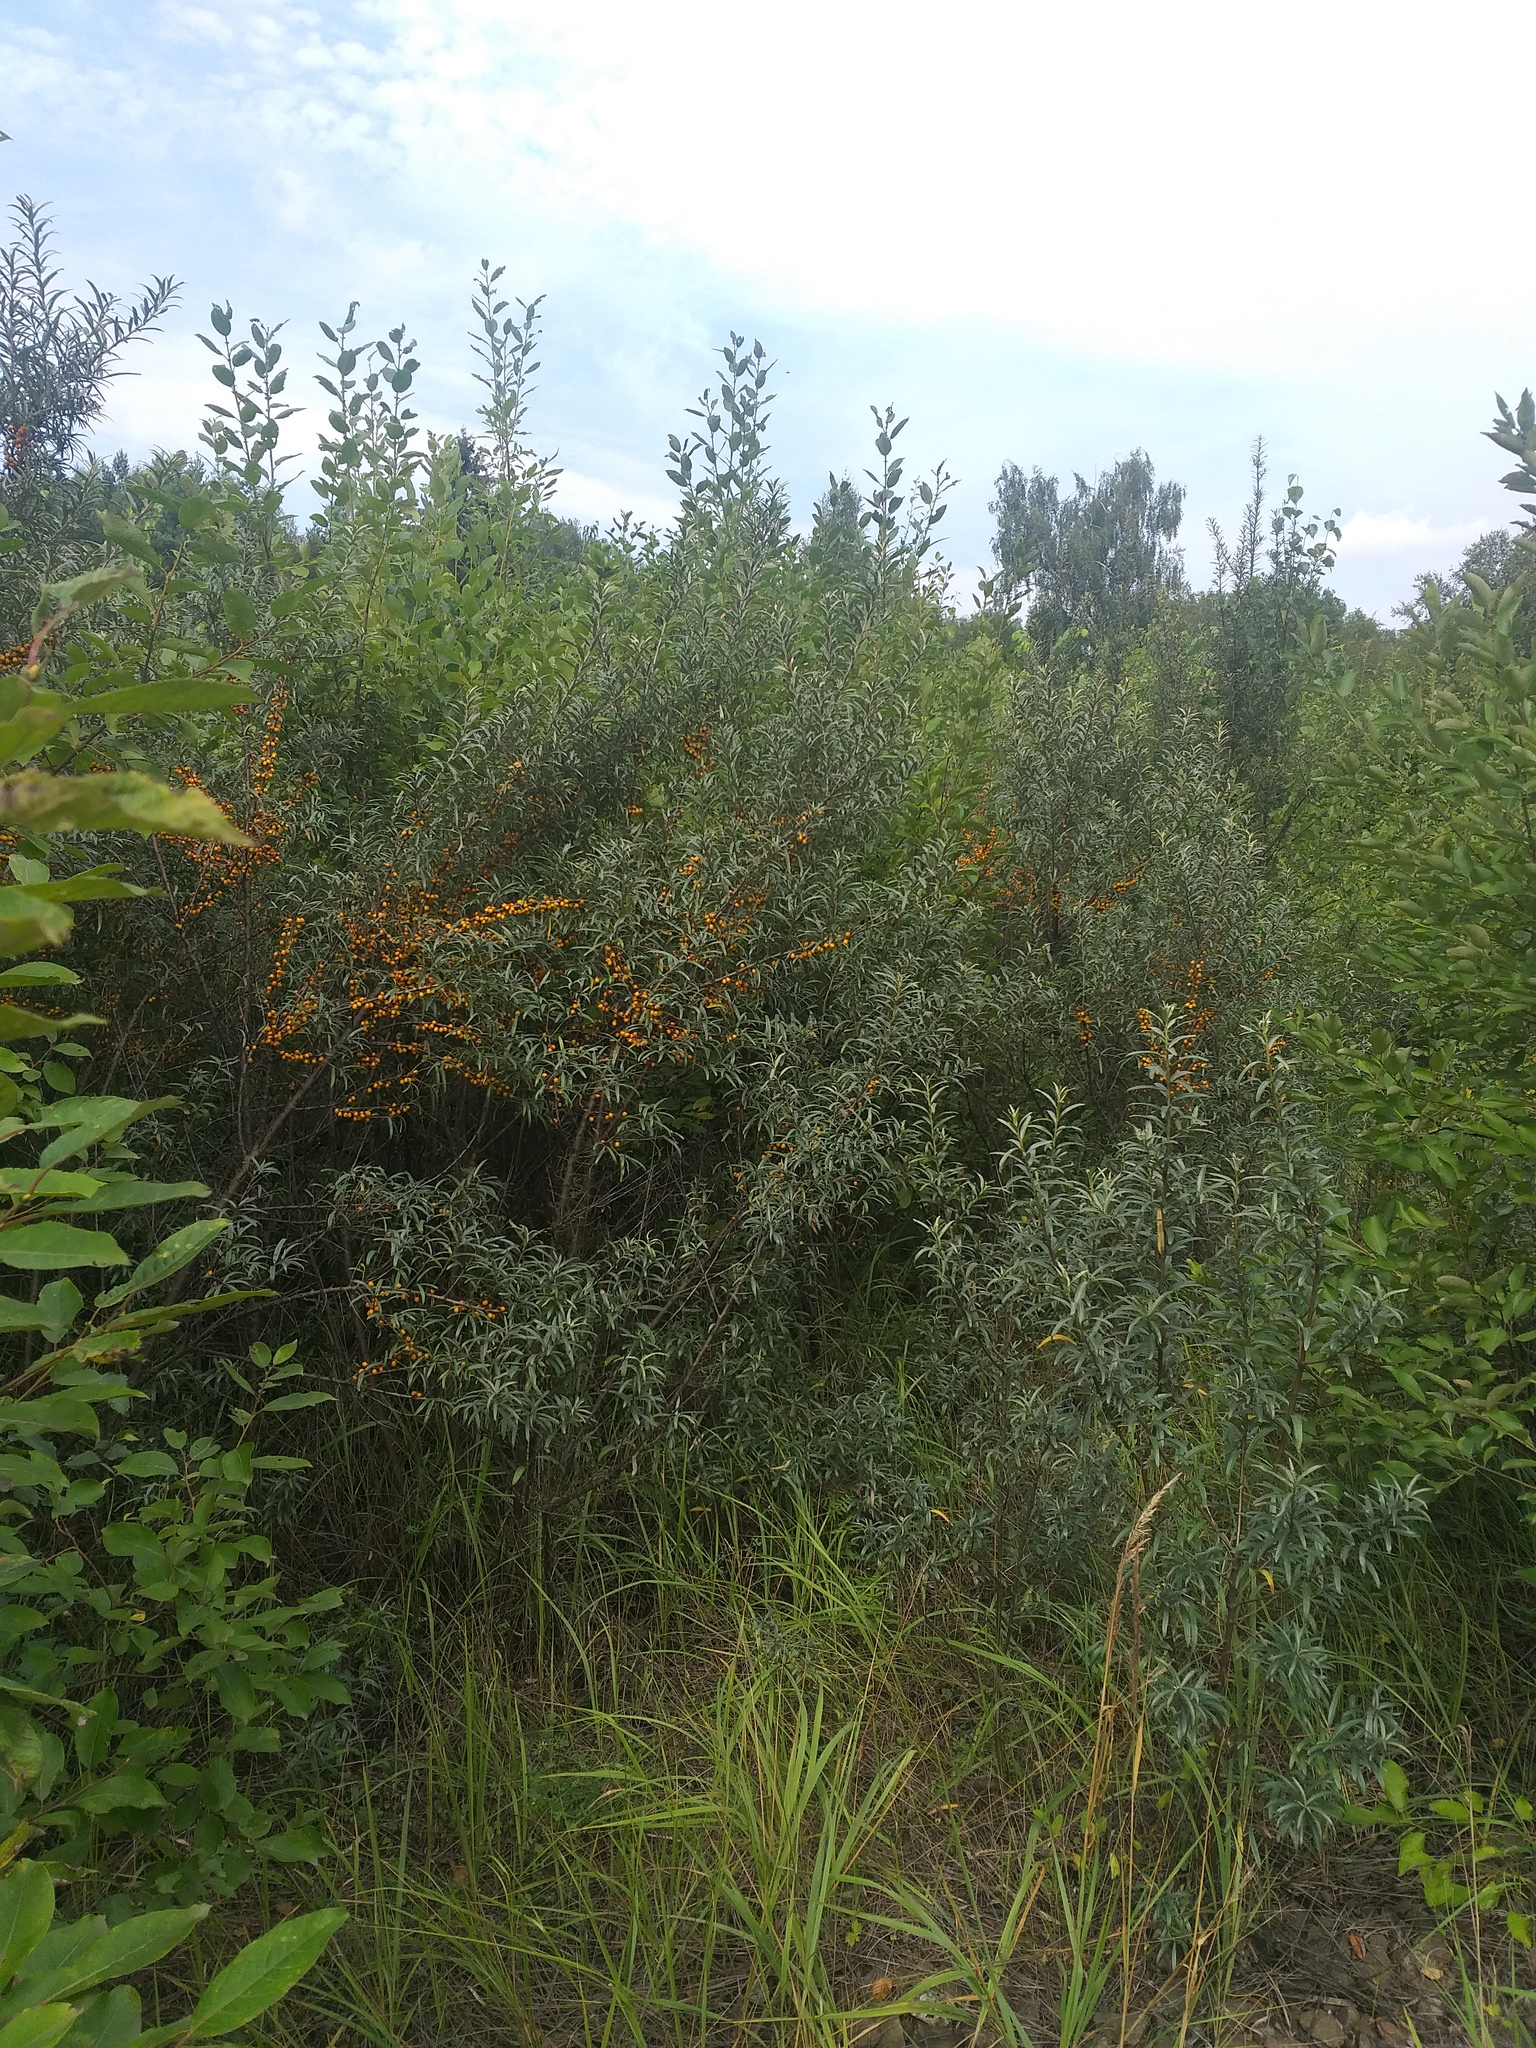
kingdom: Plantae
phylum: Tracheophyta
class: Magnoliopsida
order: Rosales
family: Elaeagnaceae
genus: Hippophae
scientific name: Hippophae rhamnoides
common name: Sea-buckthorn
